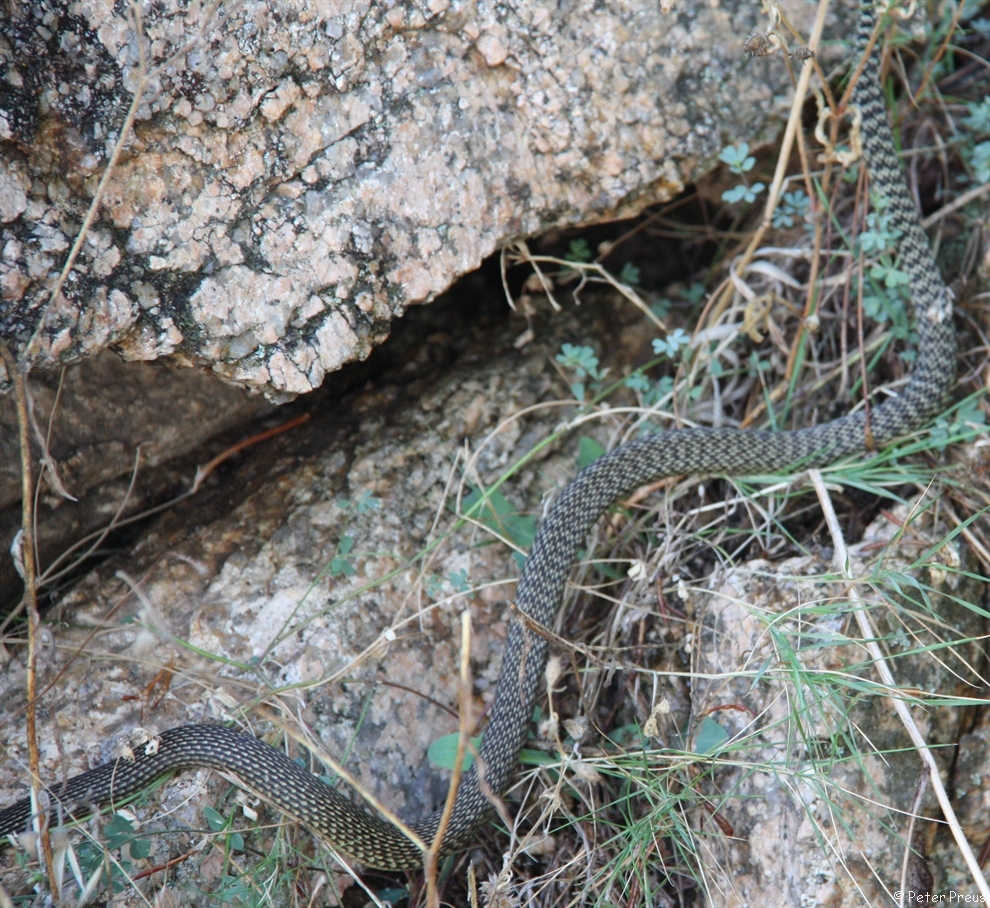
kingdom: Animalia
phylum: Chordata
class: Squamata
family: Colubridae
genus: Hierophis
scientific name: Hierophis viridiflavus
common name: Green whip snake
